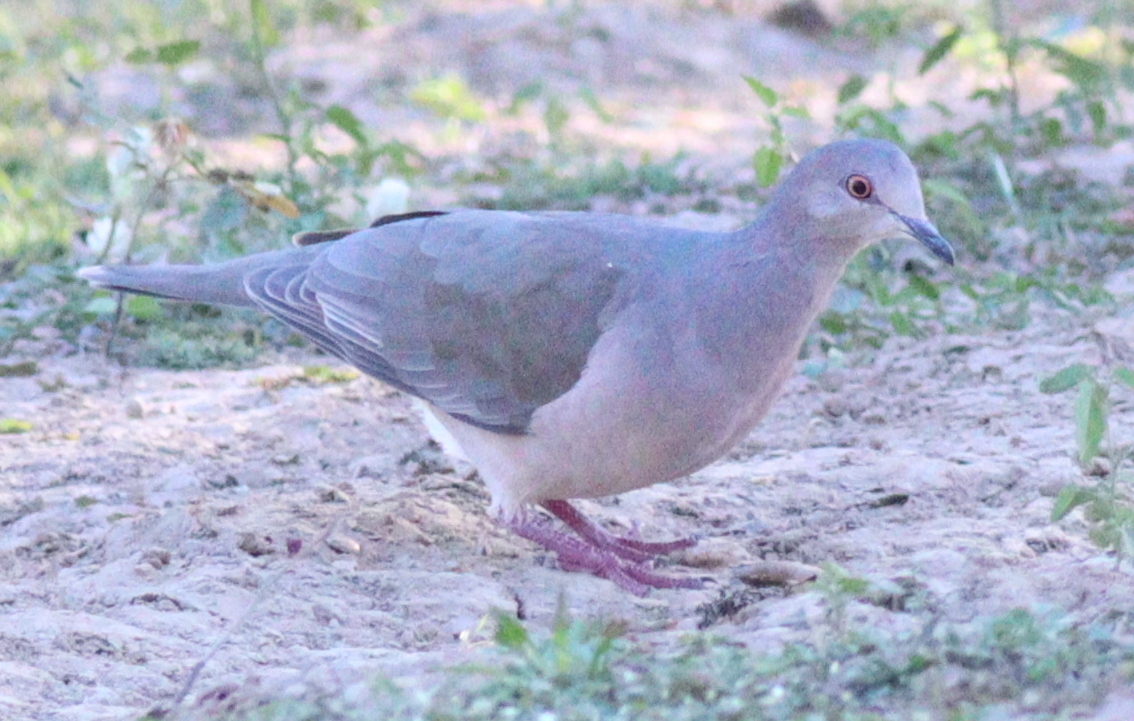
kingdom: Animalia
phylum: Chordata
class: Aves
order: Columbiformes
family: Columbidae
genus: Leptotila
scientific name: Leptotila verreauxi
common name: White-tipped dove
